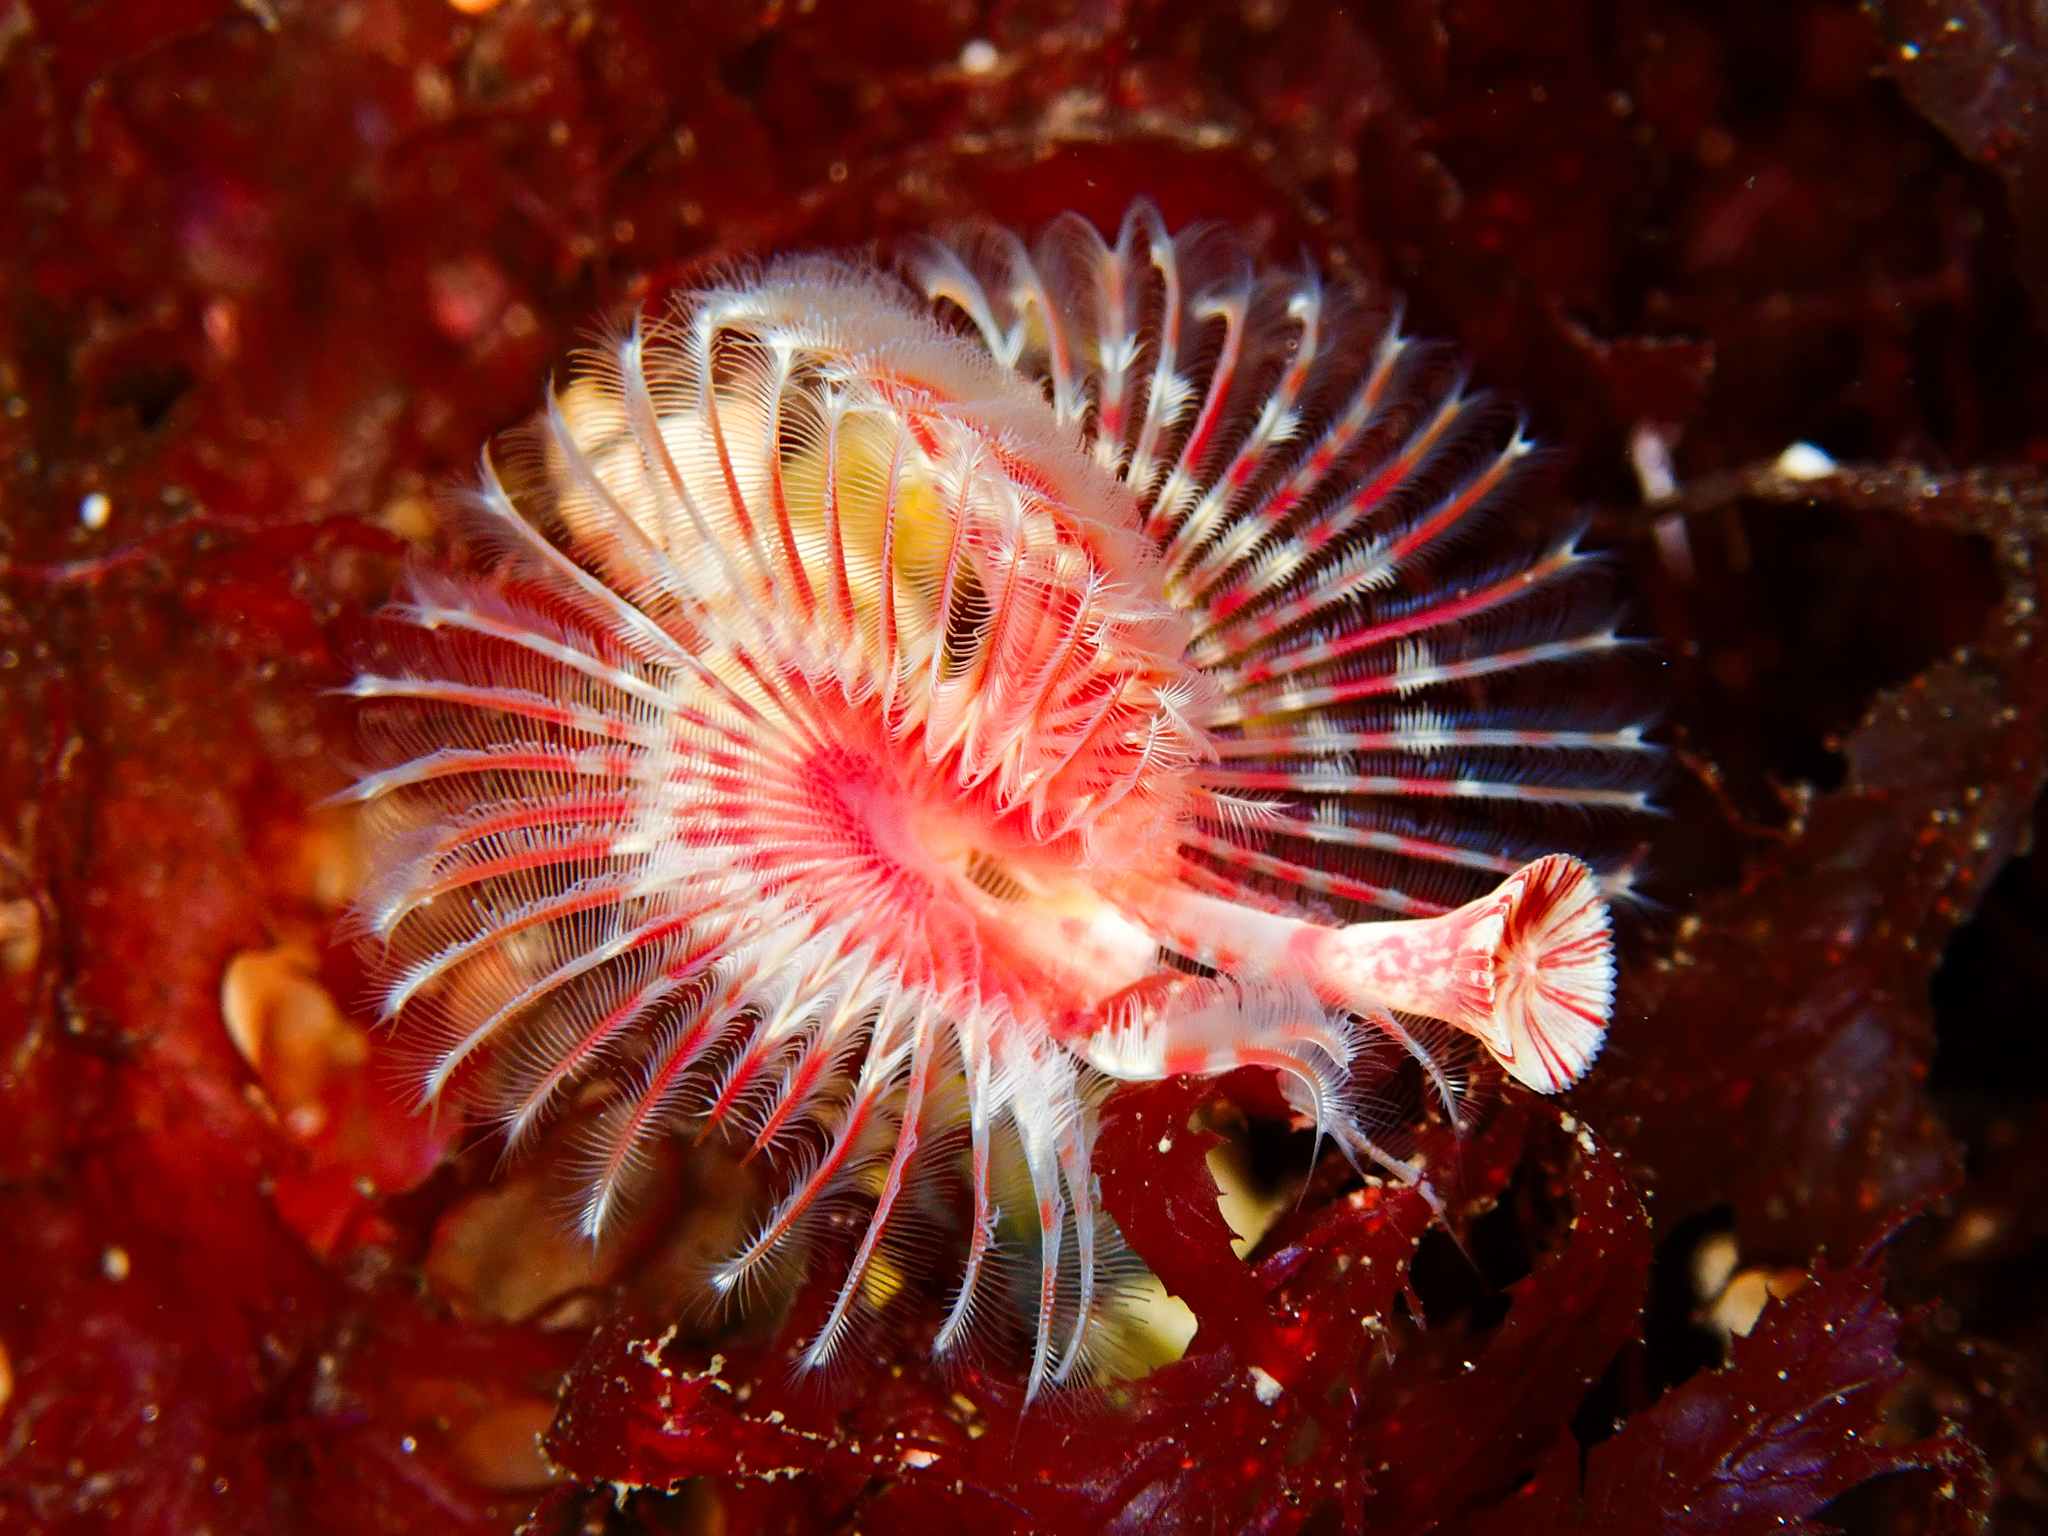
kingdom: Animalia
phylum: Annelida
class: Polychaeta
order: Sabellida
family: Serpulidae
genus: Serpula
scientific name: Serpula vermicularis
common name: Calcareous tubeworm
